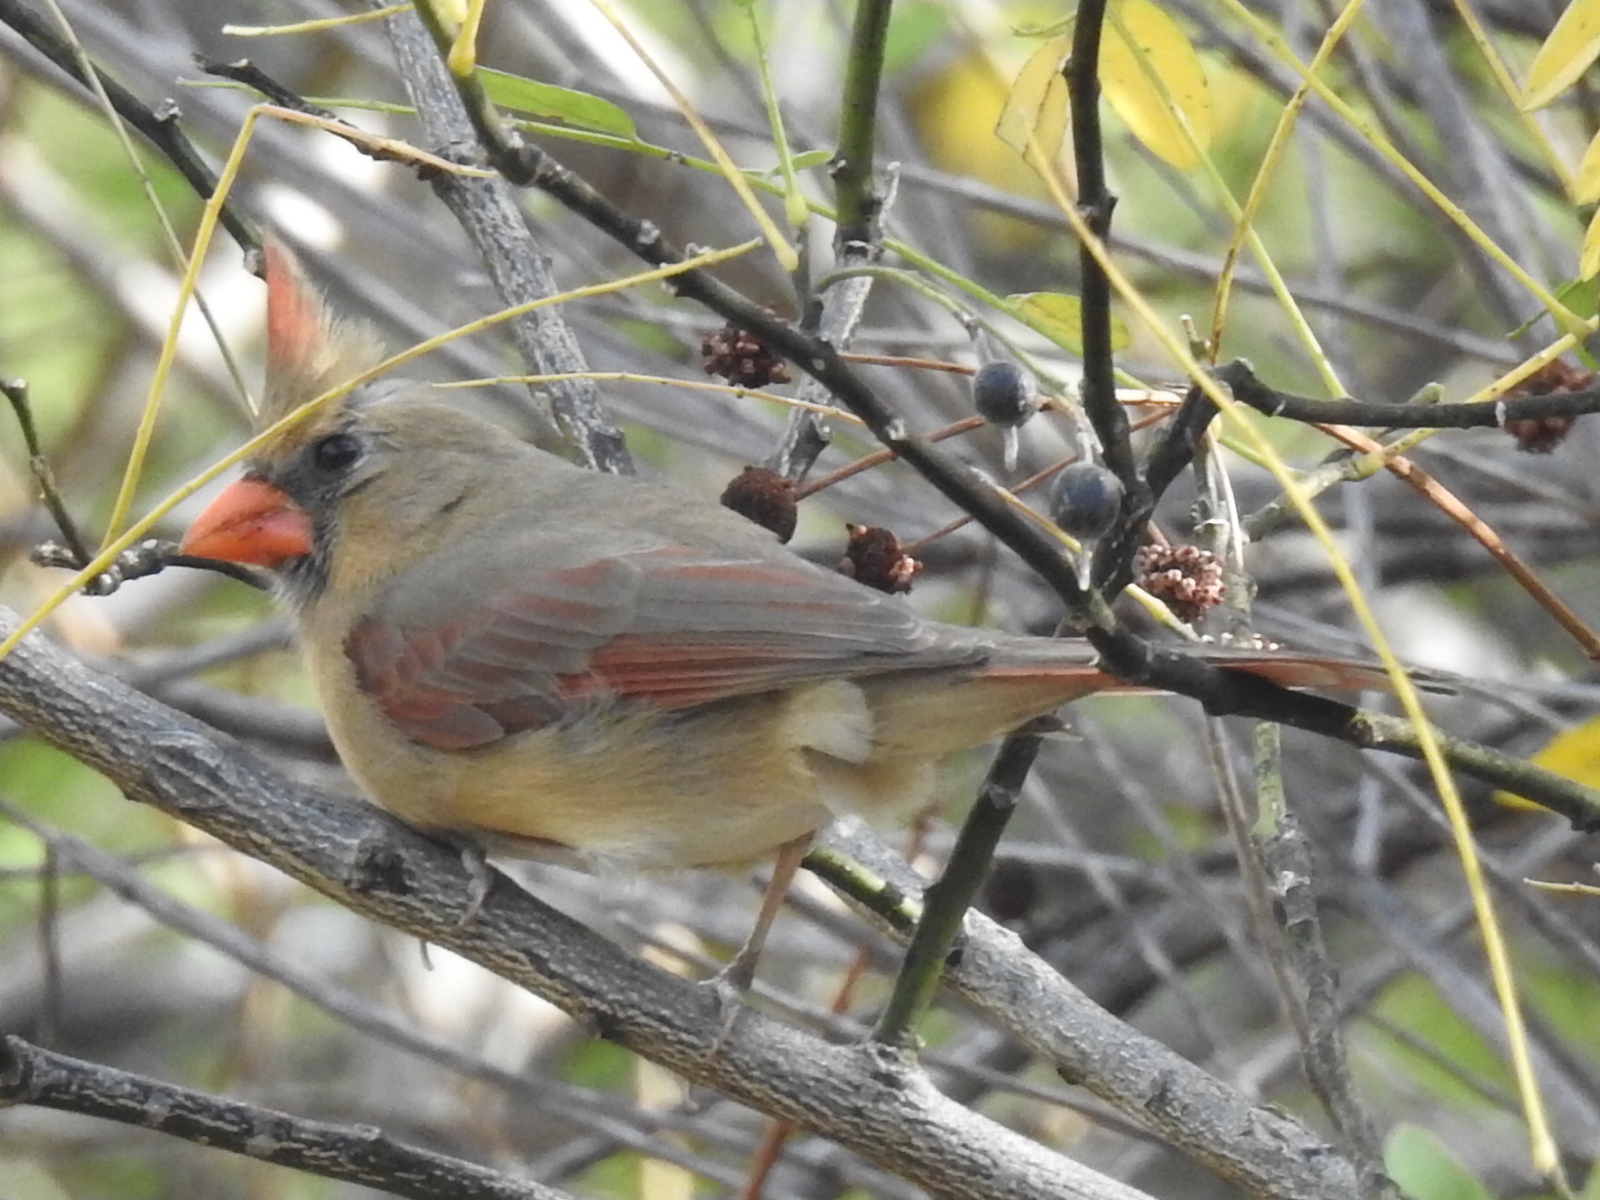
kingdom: Animalia
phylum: Chordata
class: Aves
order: Passeriformes
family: Cardinalidae
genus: Cardinalis
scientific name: Cardinalis cardinalis
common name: Northern cardinal
